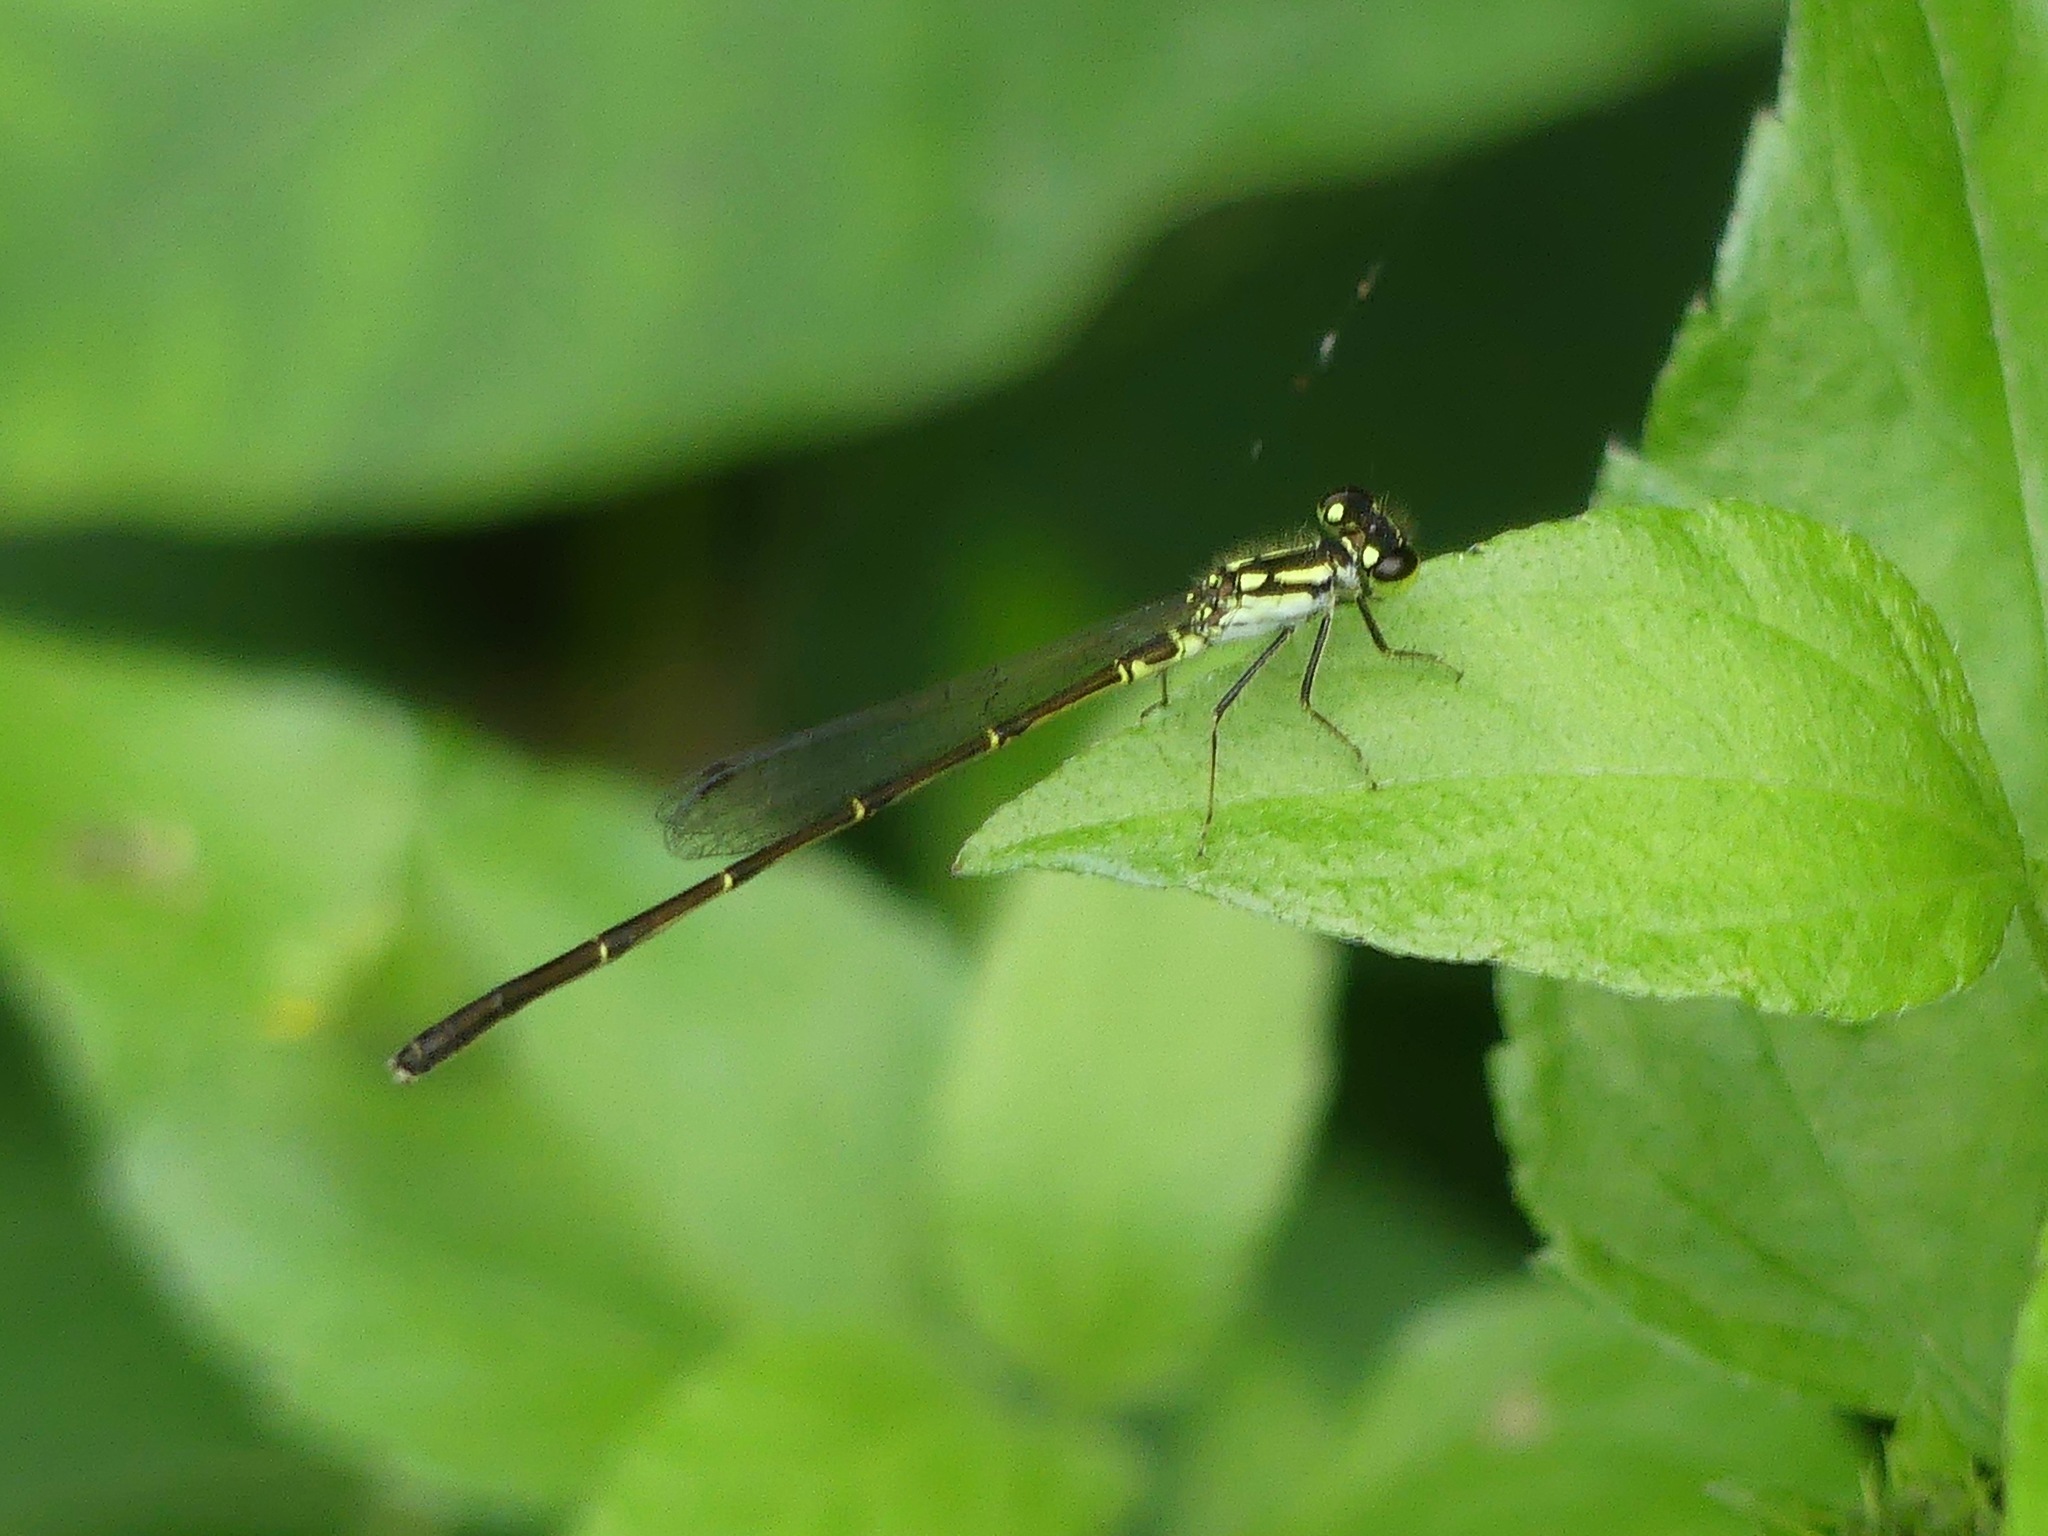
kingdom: Animalia
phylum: Arthropoda
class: Insecta
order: Odonata
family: Coenagrionidae
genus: Ischnura
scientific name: Ischnura posita
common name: Fragile forktail
